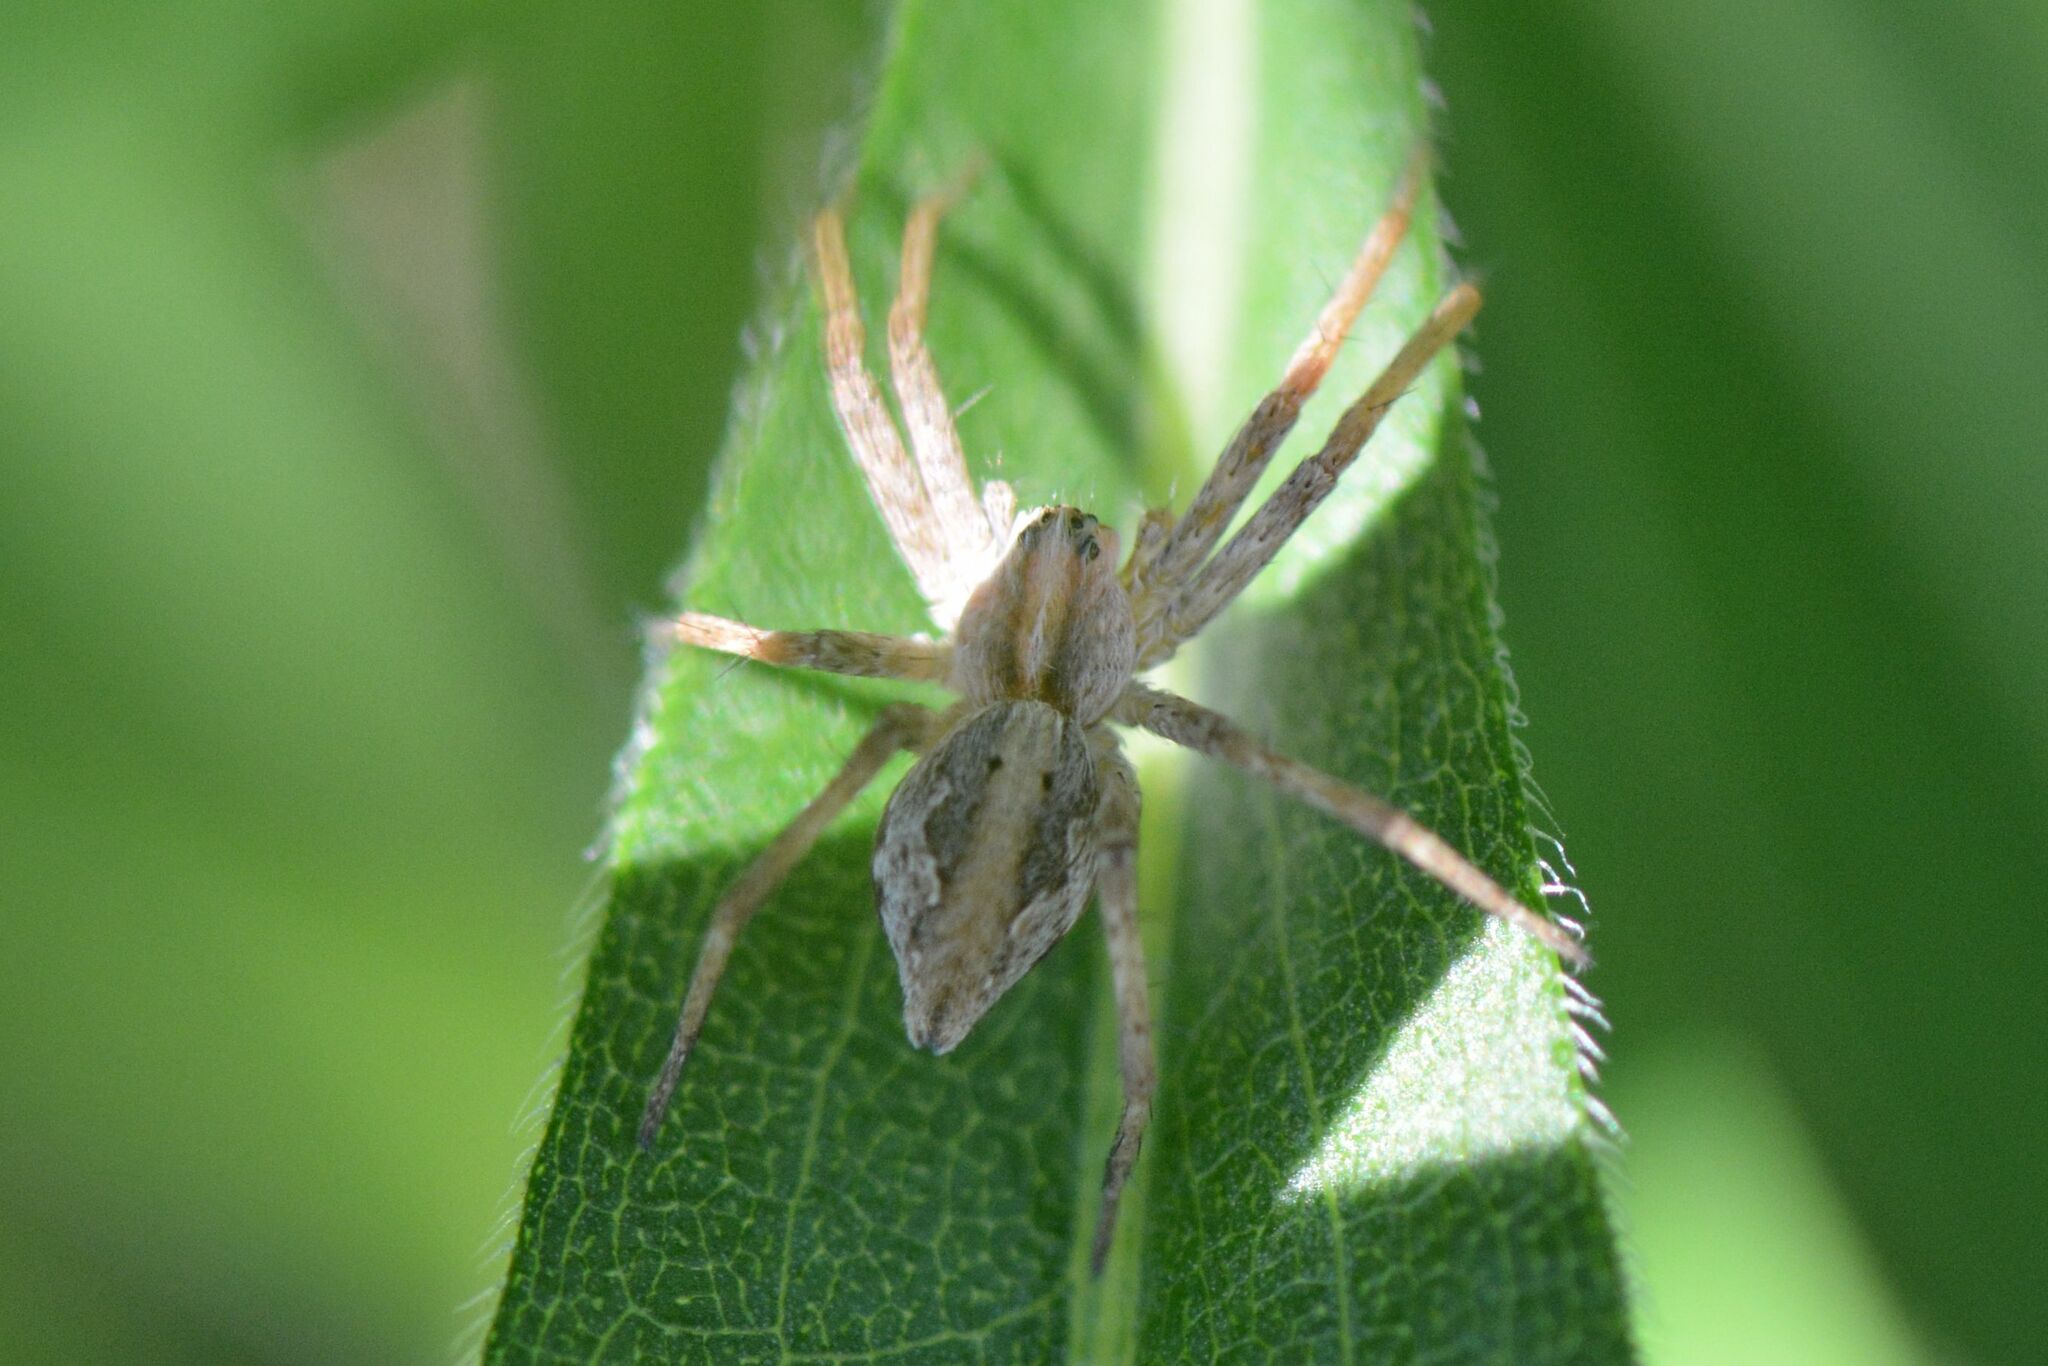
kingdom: Animalia
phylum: Arthropoda
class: Arachnida
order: Araneae
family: Pisauridae
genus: Pisaura
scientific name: Pisaura mirabilis
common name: Tent spider
